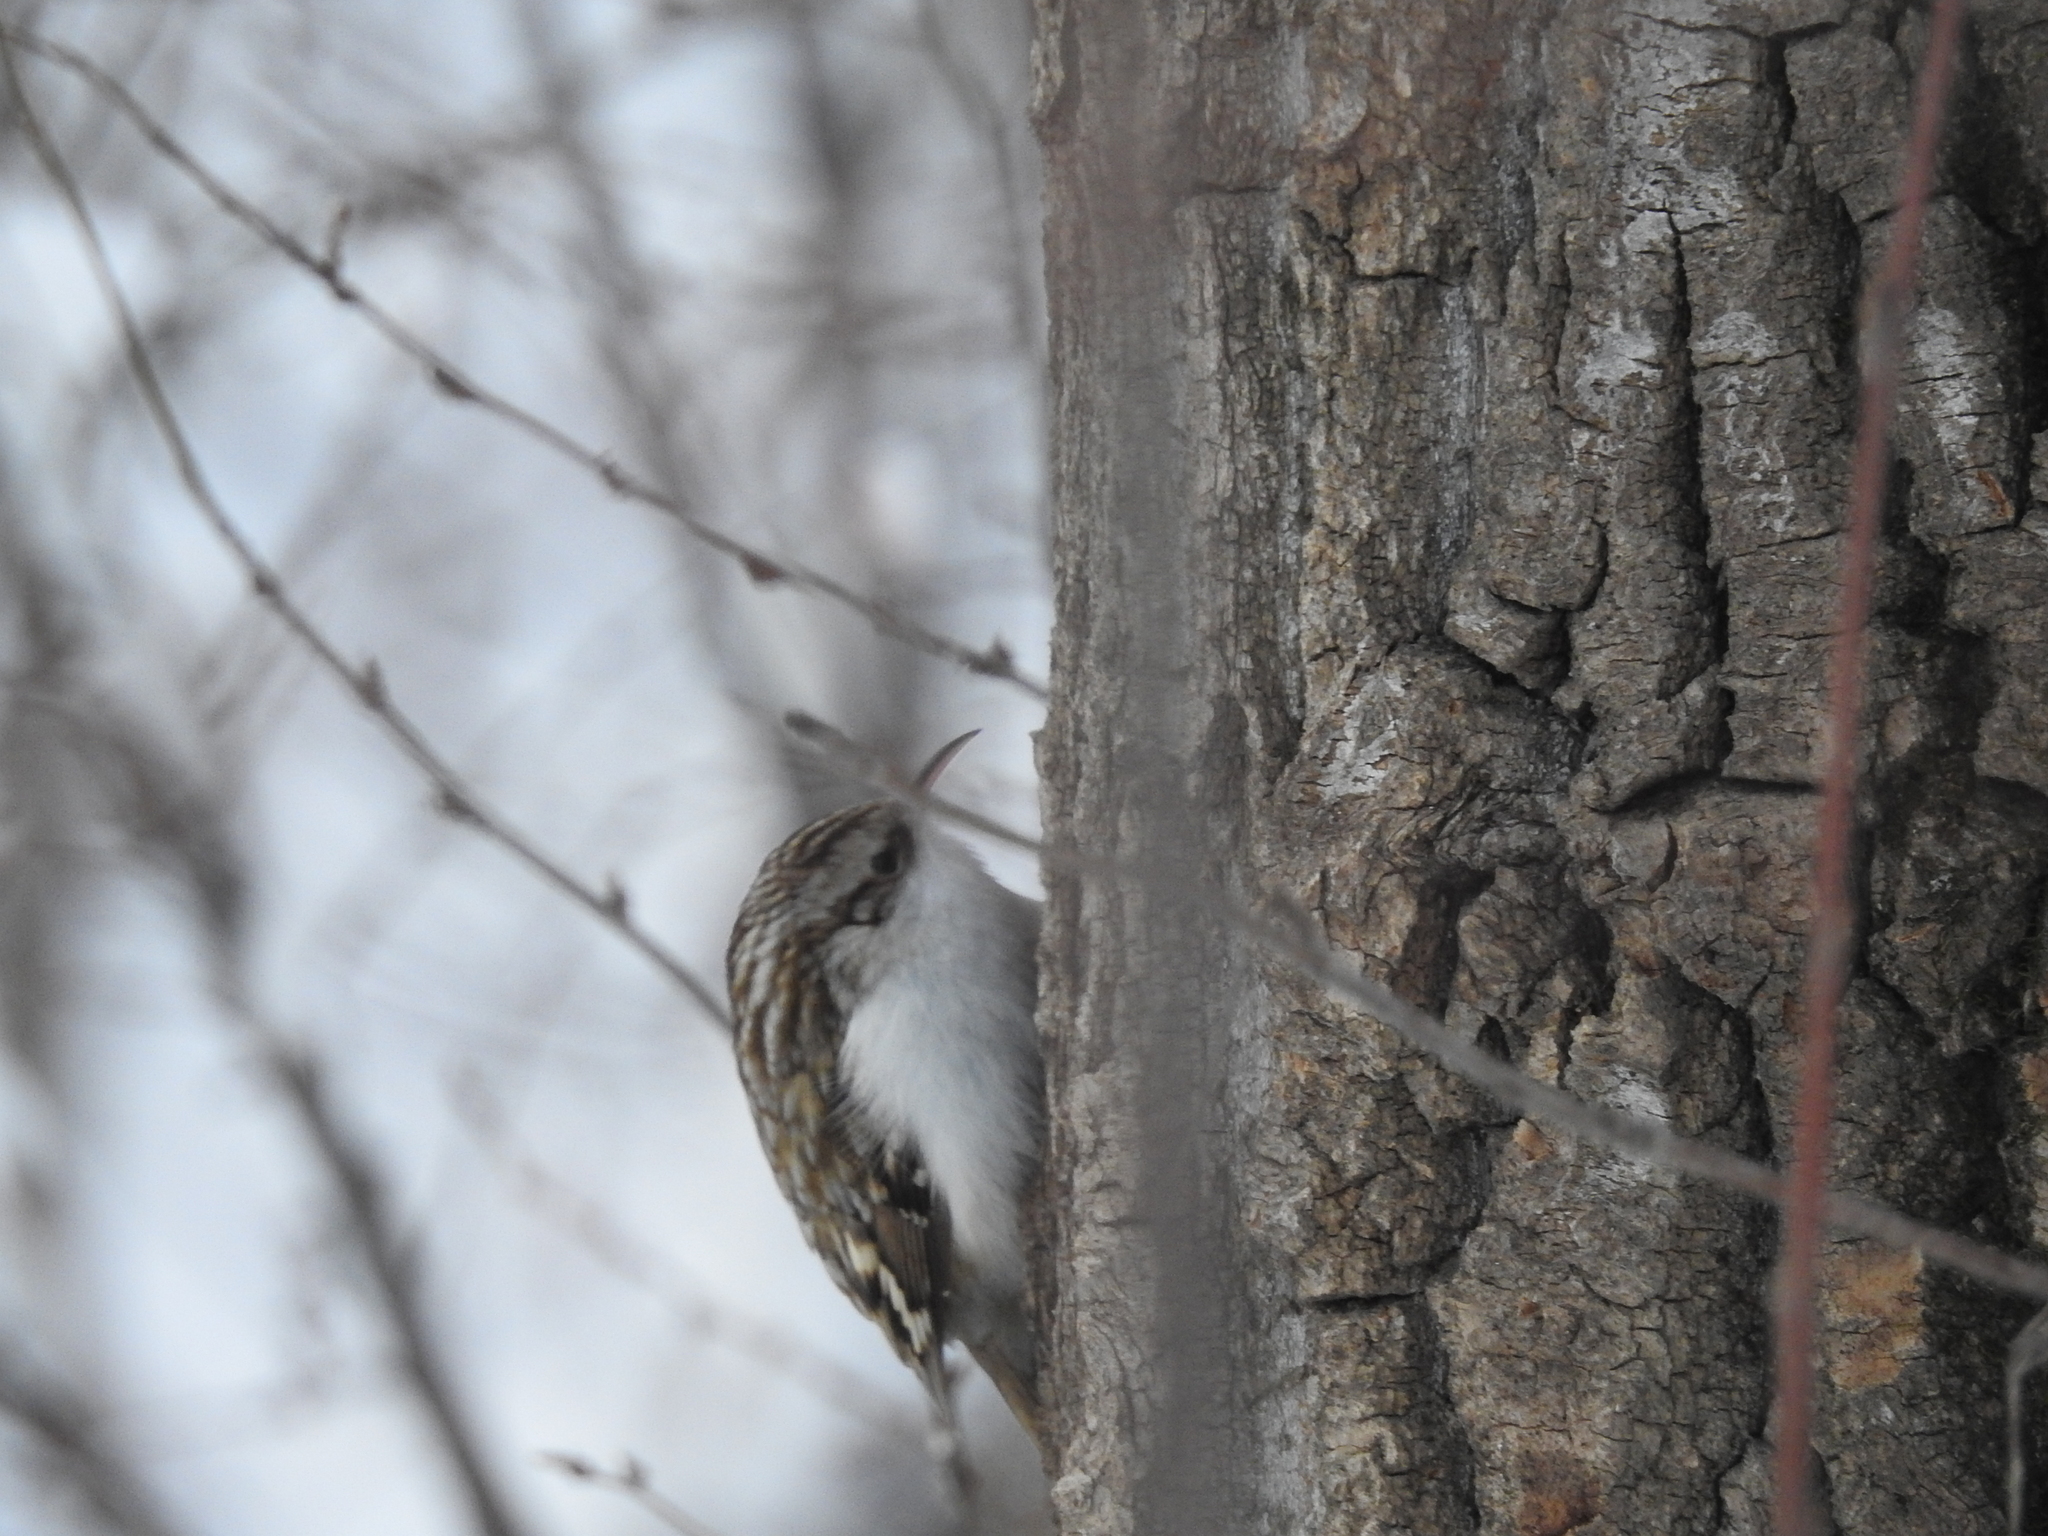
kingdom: Animalia
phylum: Chordata
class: Aves
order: Passeriformes
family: Certhiidae
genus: Certhia
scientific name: Certhia familiaris
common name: Eurasian treecreeper
